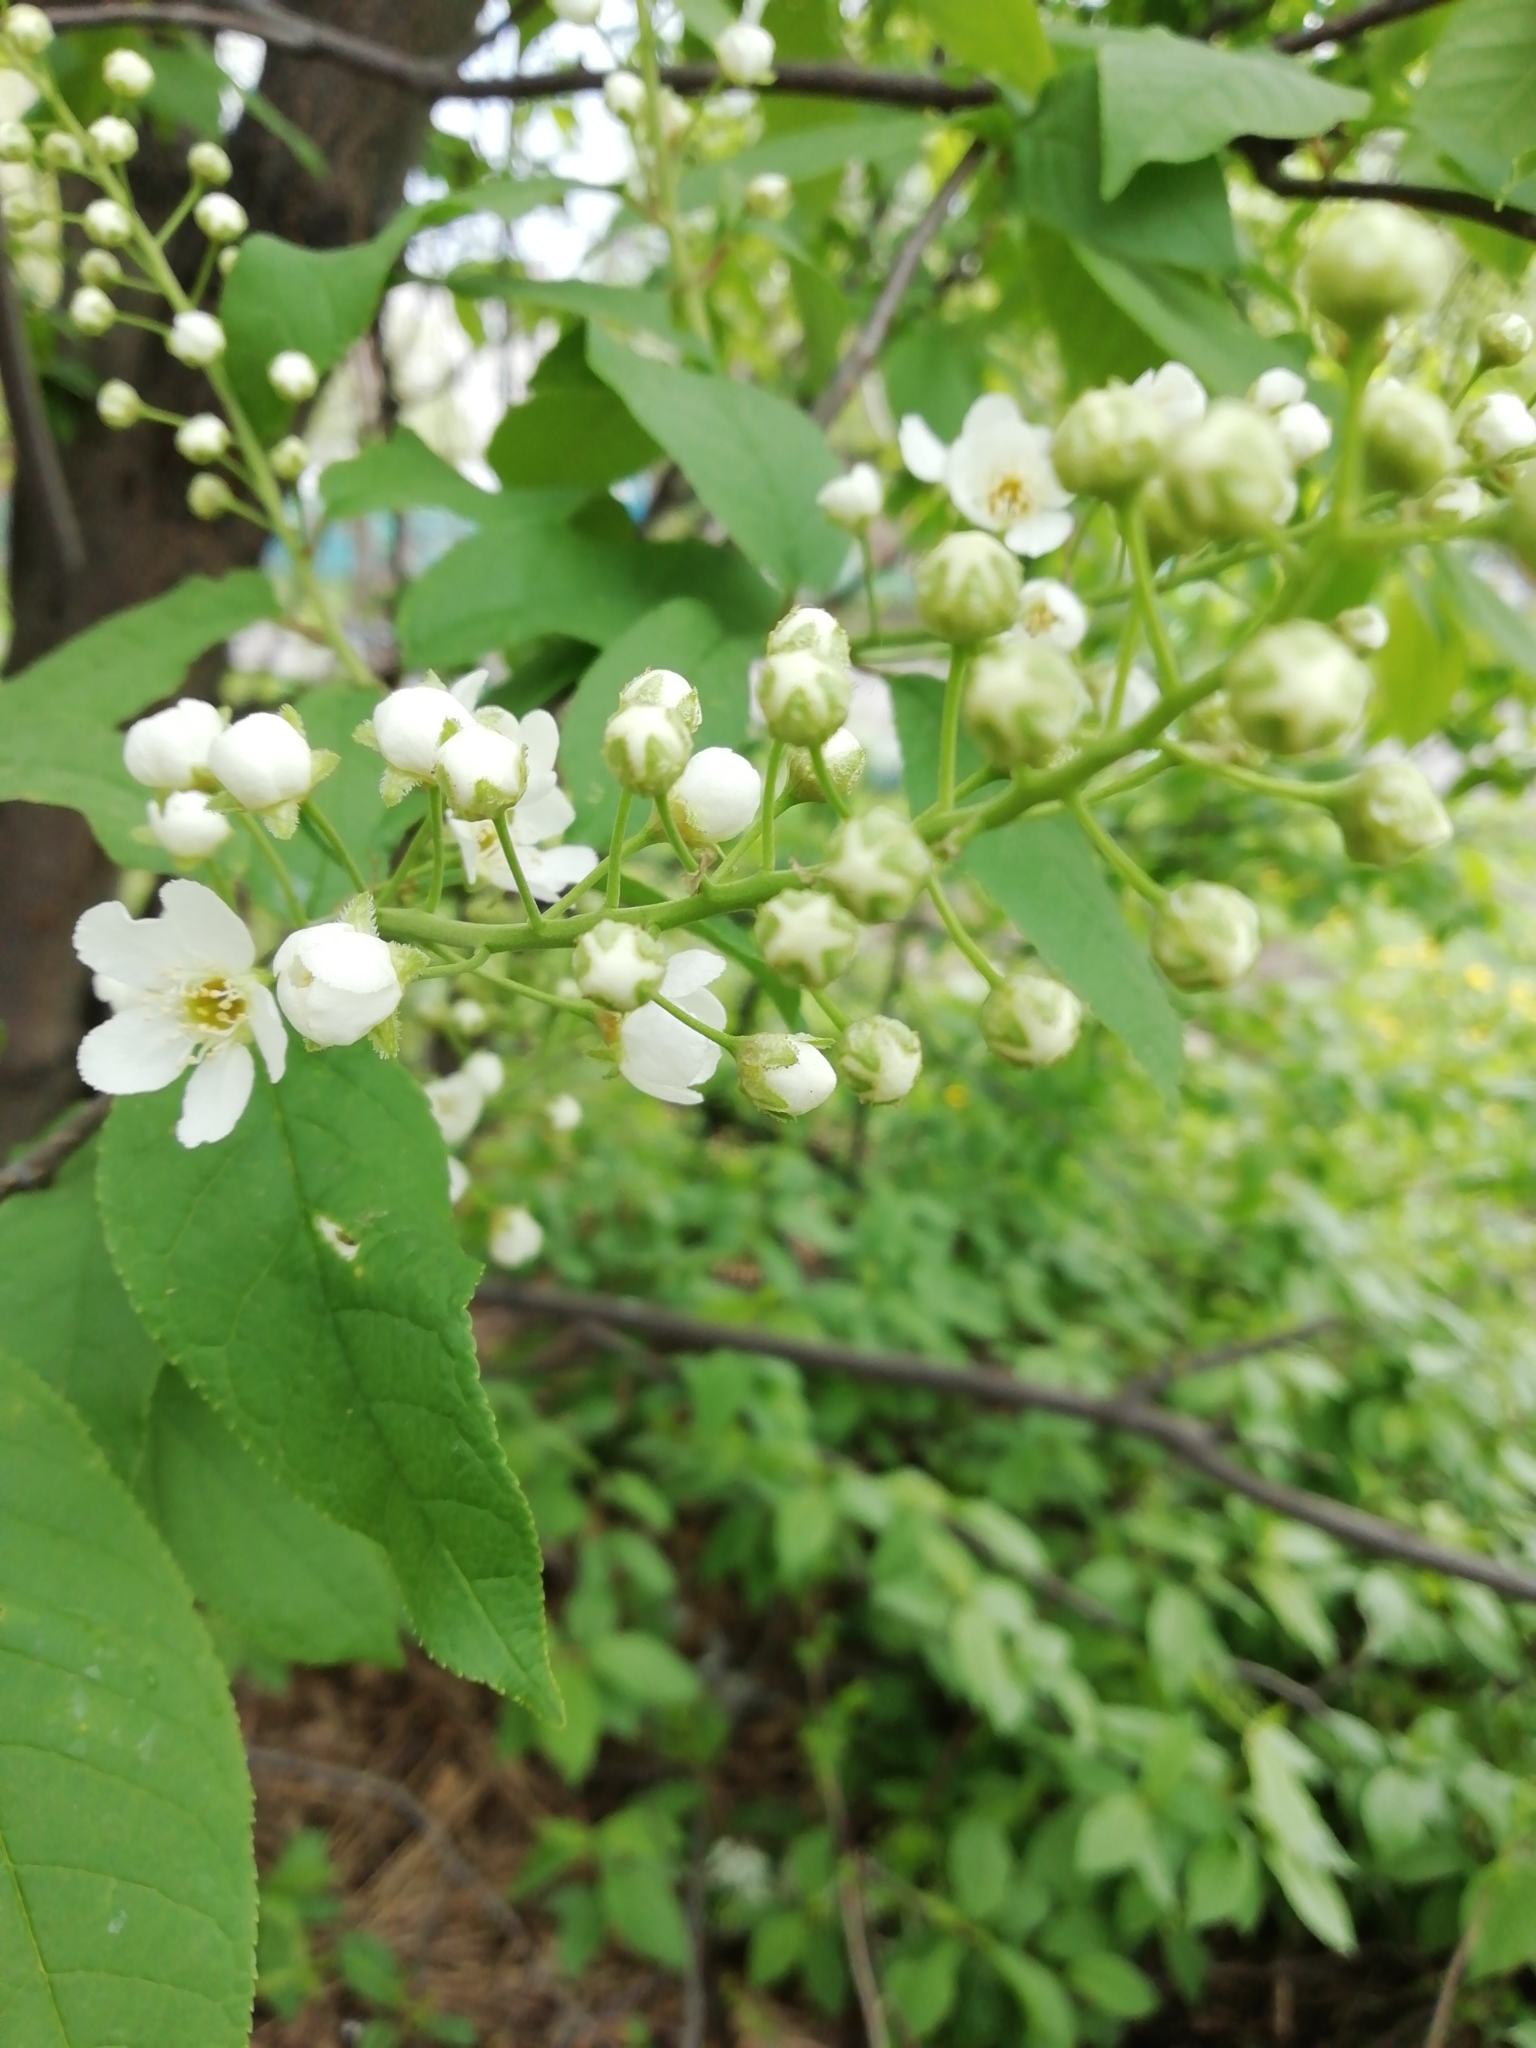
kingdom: Plantae
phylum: Tracheophyta
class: Magnoliopsida
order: Rosales
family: Rosaceae
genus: Prunus
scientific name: Prunus padus
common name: Bird cherry
